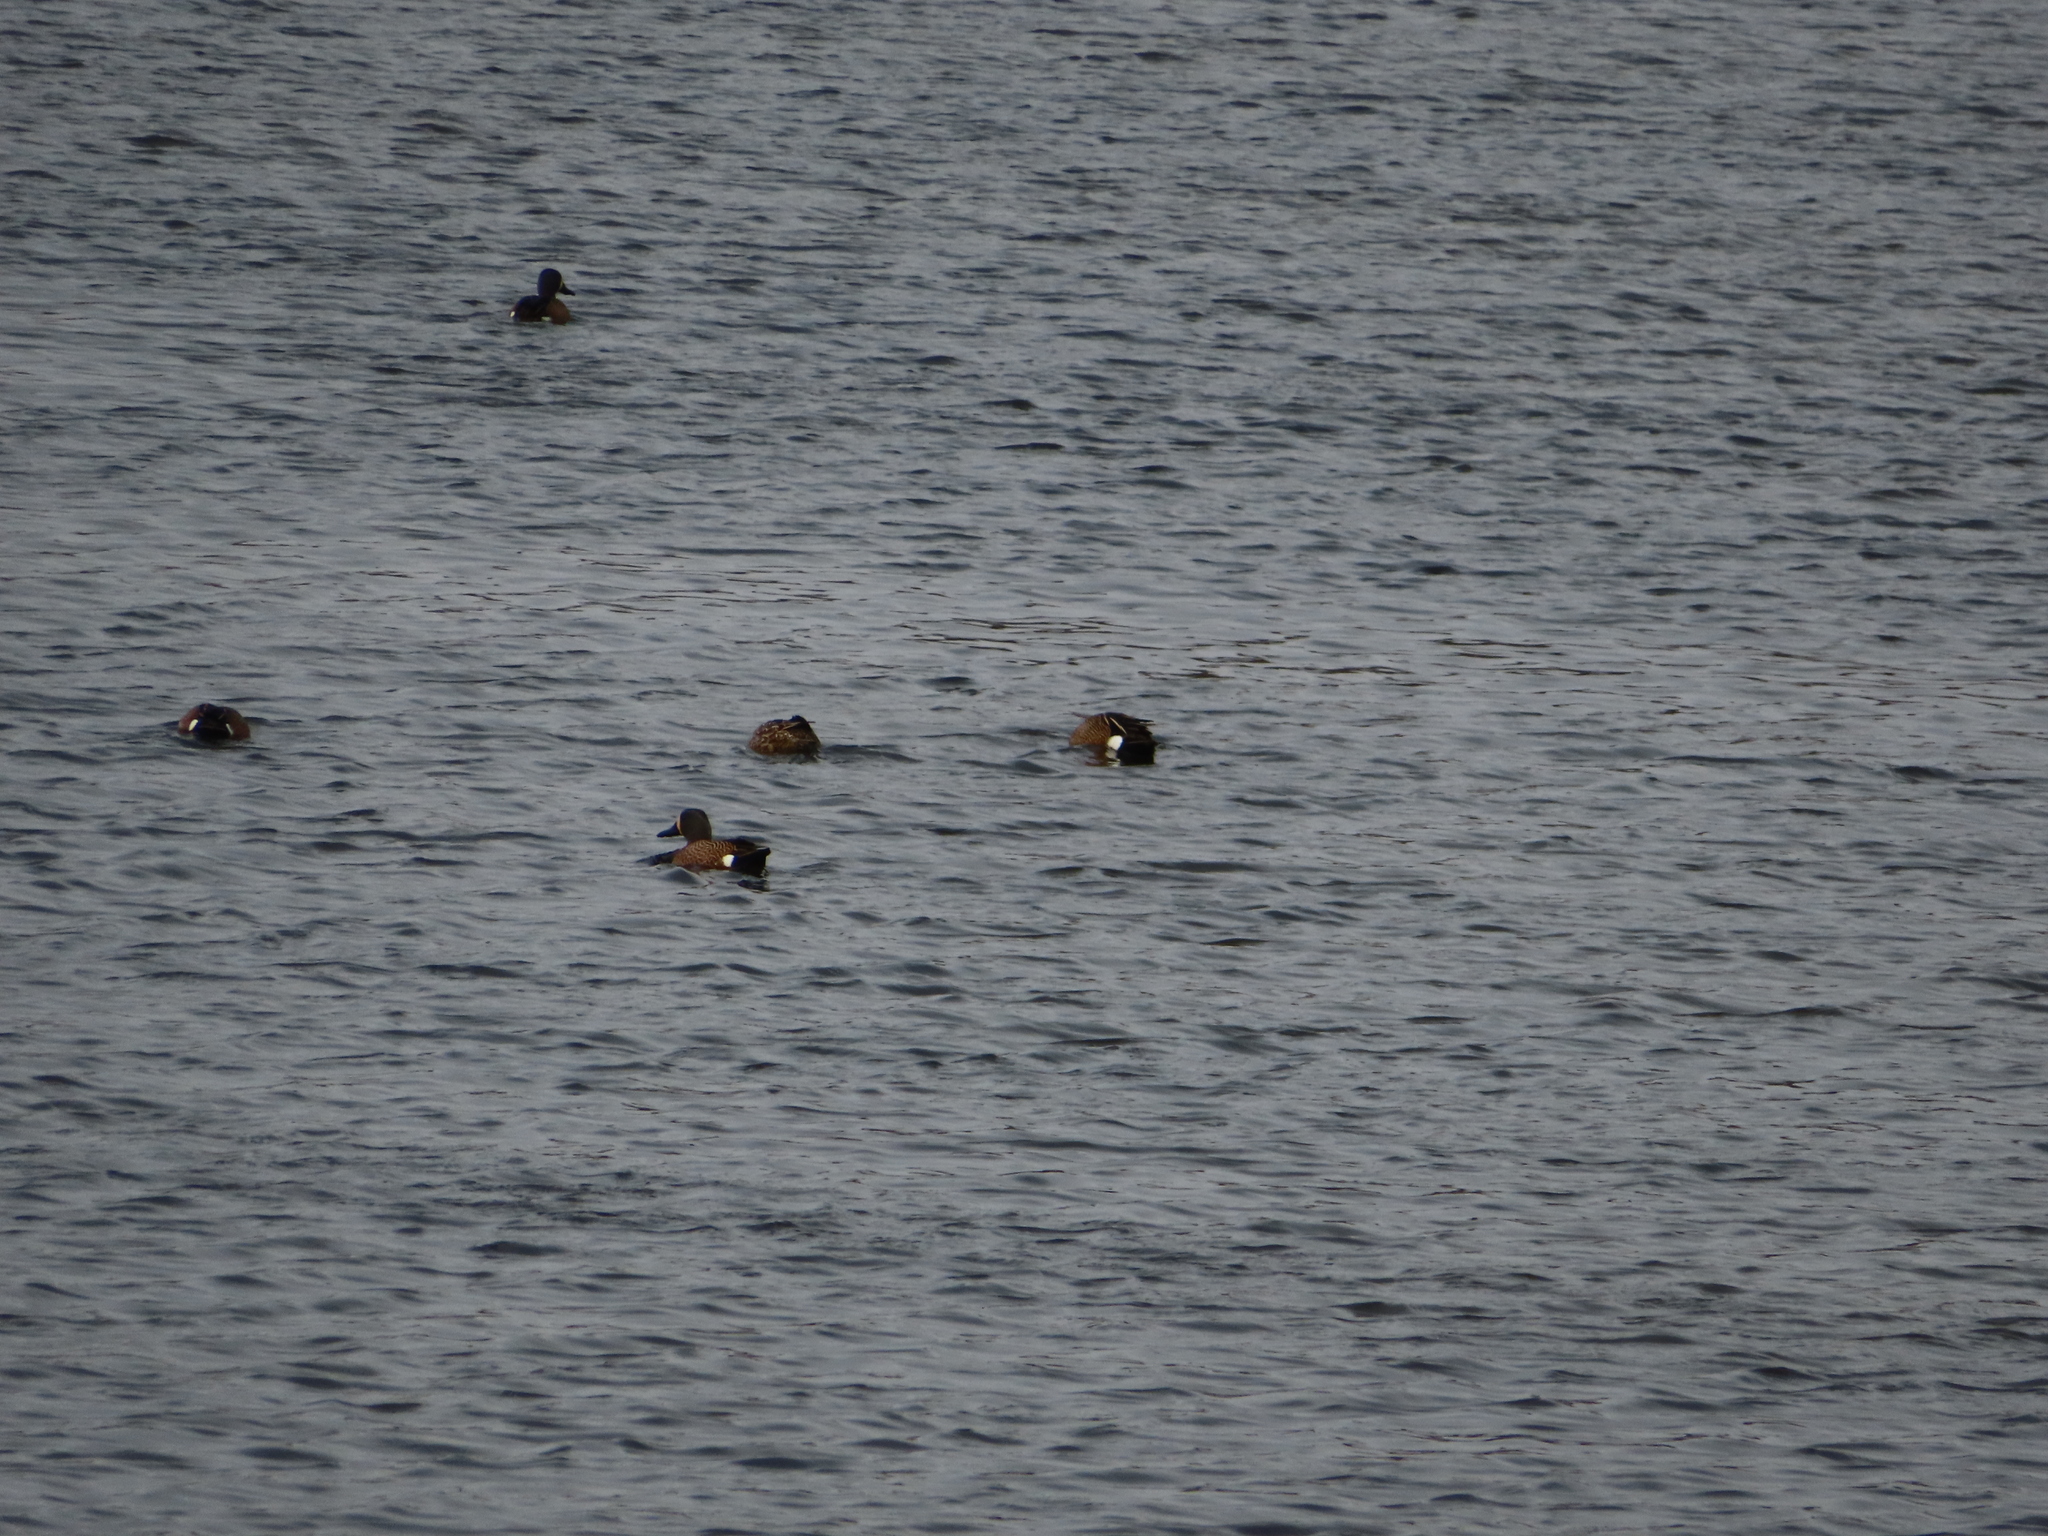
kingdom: Animalia
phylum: Chordata
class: Aves
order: Anseriformes
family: Anatidae
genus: Spatula
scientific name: Spatula discors
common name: Blue-winged teal
